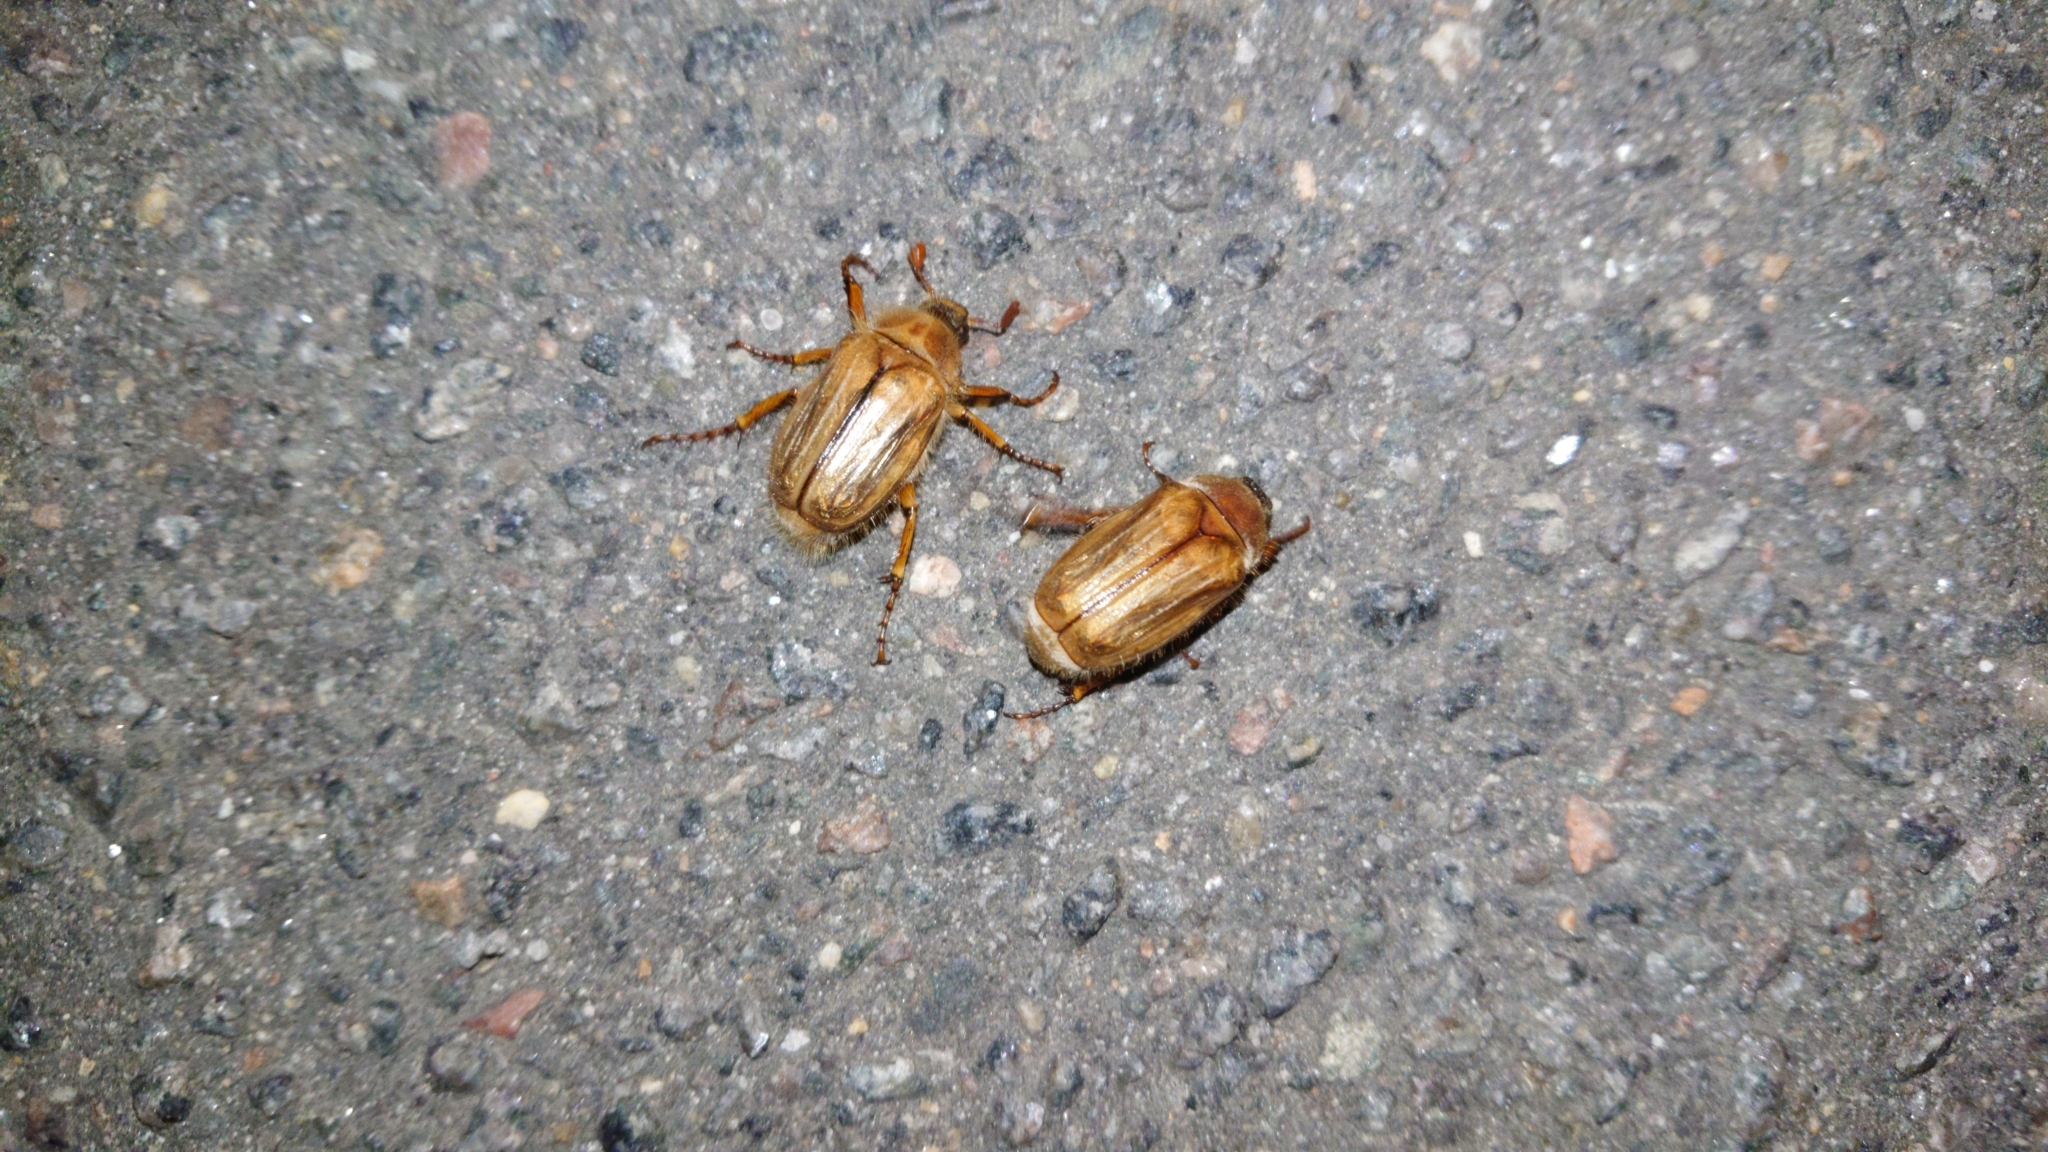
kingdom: Animalia
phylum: Arthropoda
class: Insecta
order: Coleoptera
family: Scarabaeidae
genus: Amphimallon
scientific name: Amphimallon solstitiale
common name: Summer chafer
